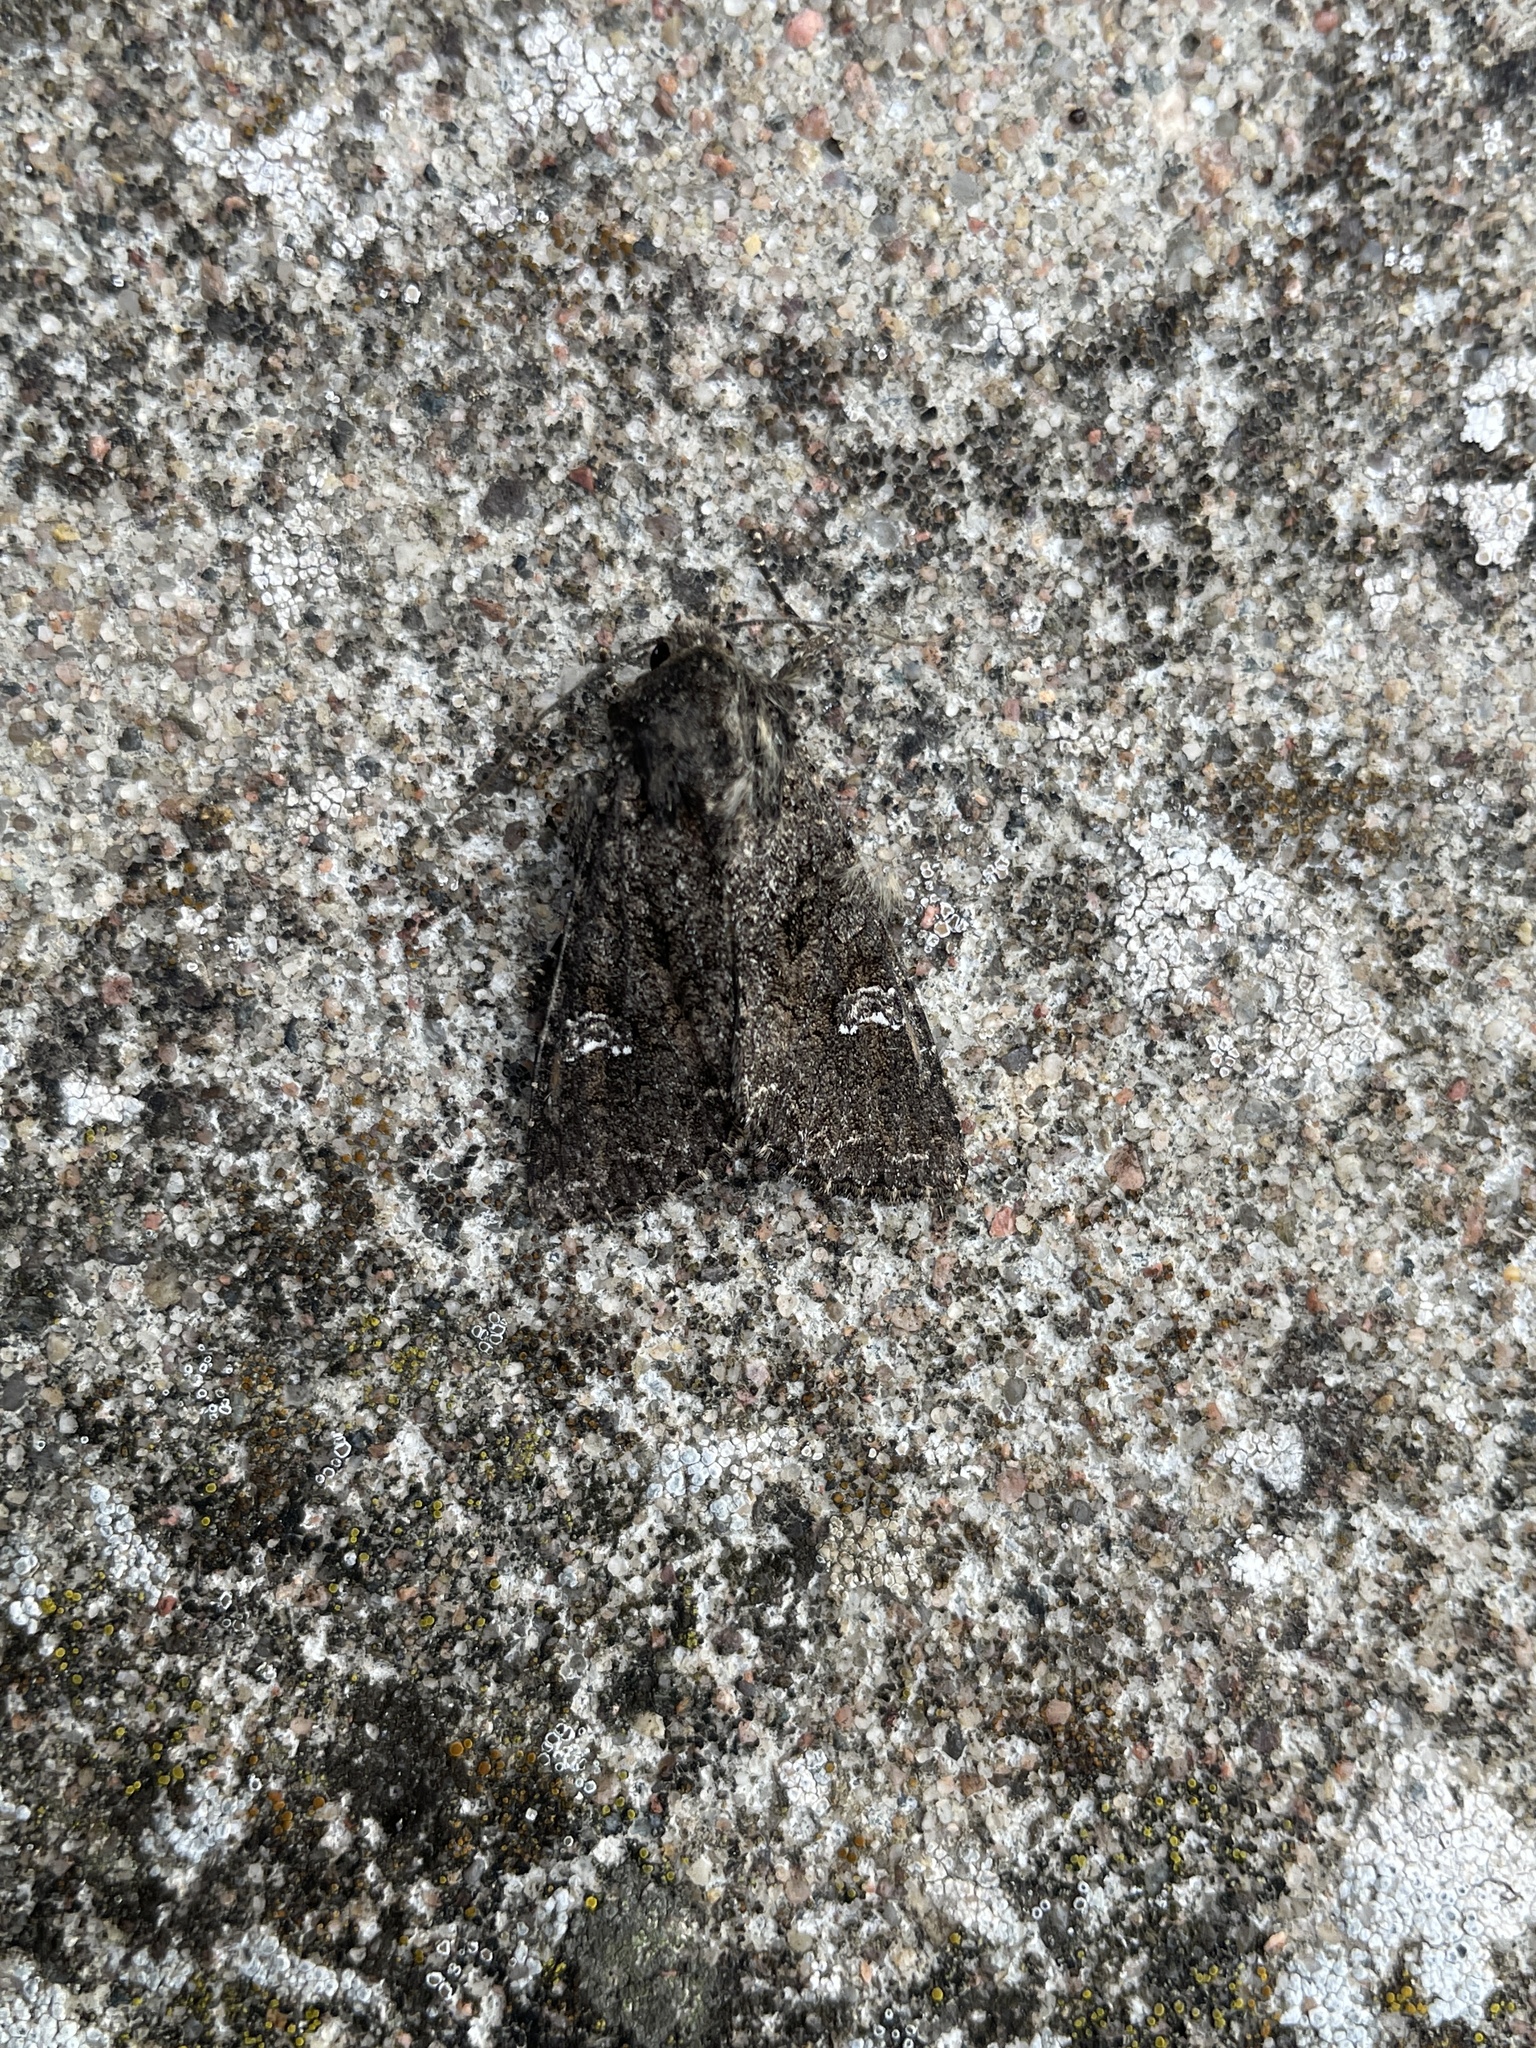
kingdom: Animalia
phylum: Arthropoda
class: Insecta
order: Lepidoptera
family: Noctuidae
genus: Mamestra
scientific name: Mamestra brassicae
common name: Cabbage moth
